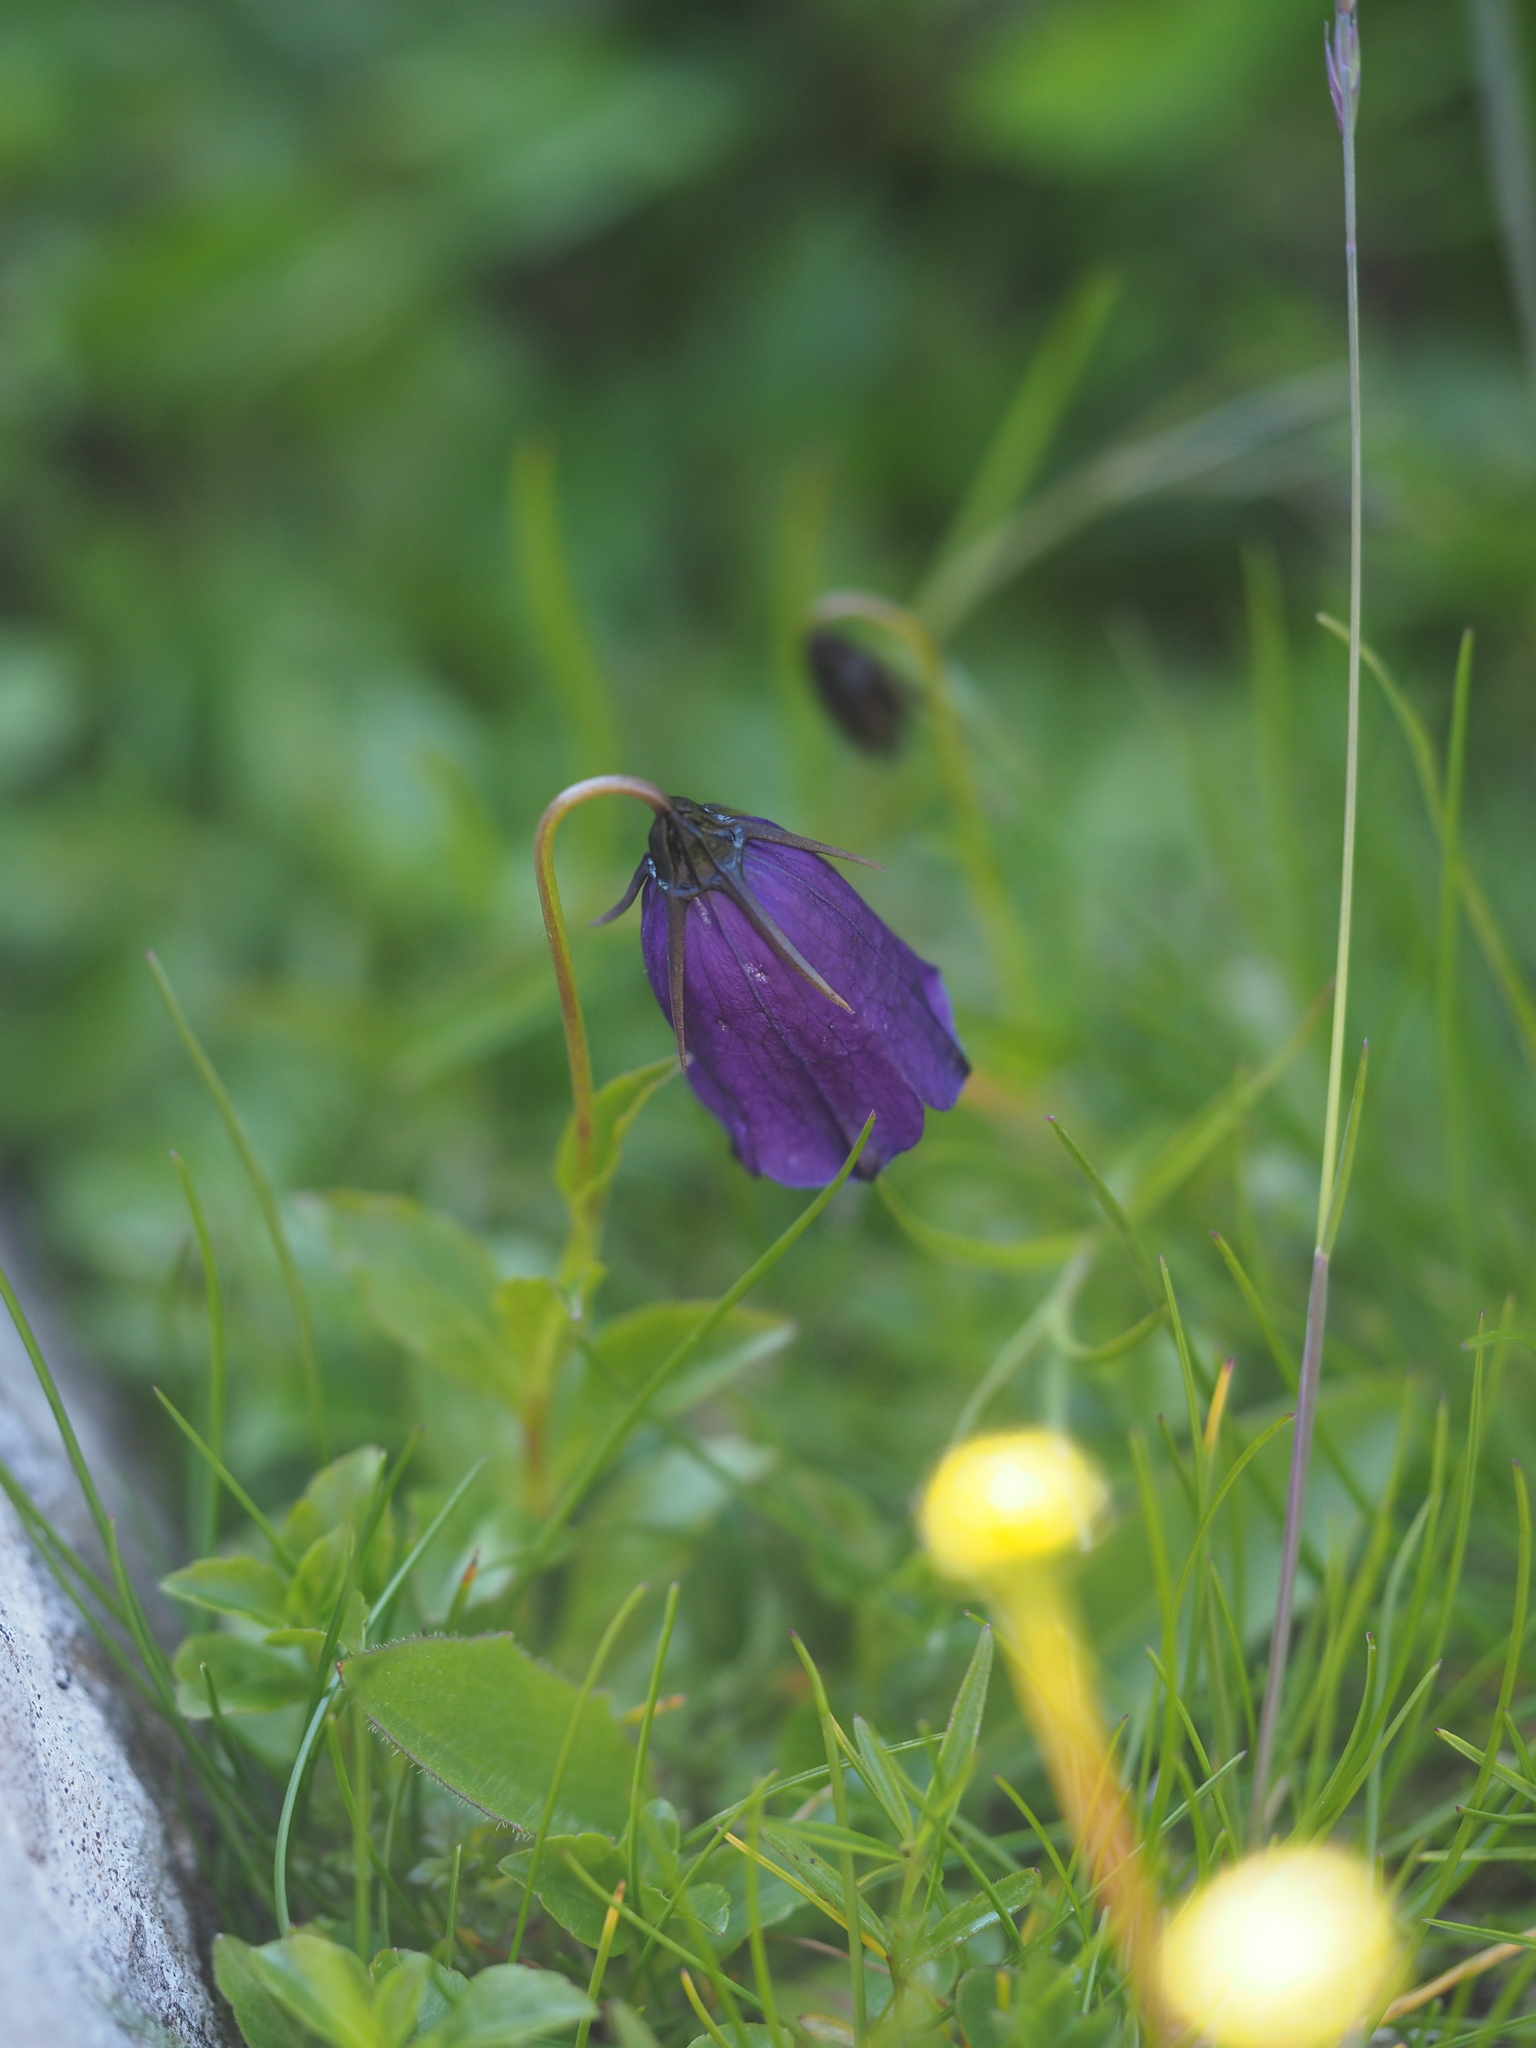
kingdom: Plantae
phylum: Tracheophyta
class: Magnoliopsida
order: Asterales
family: Campanulaceae
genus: Campanula
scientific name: Campanula pulla
